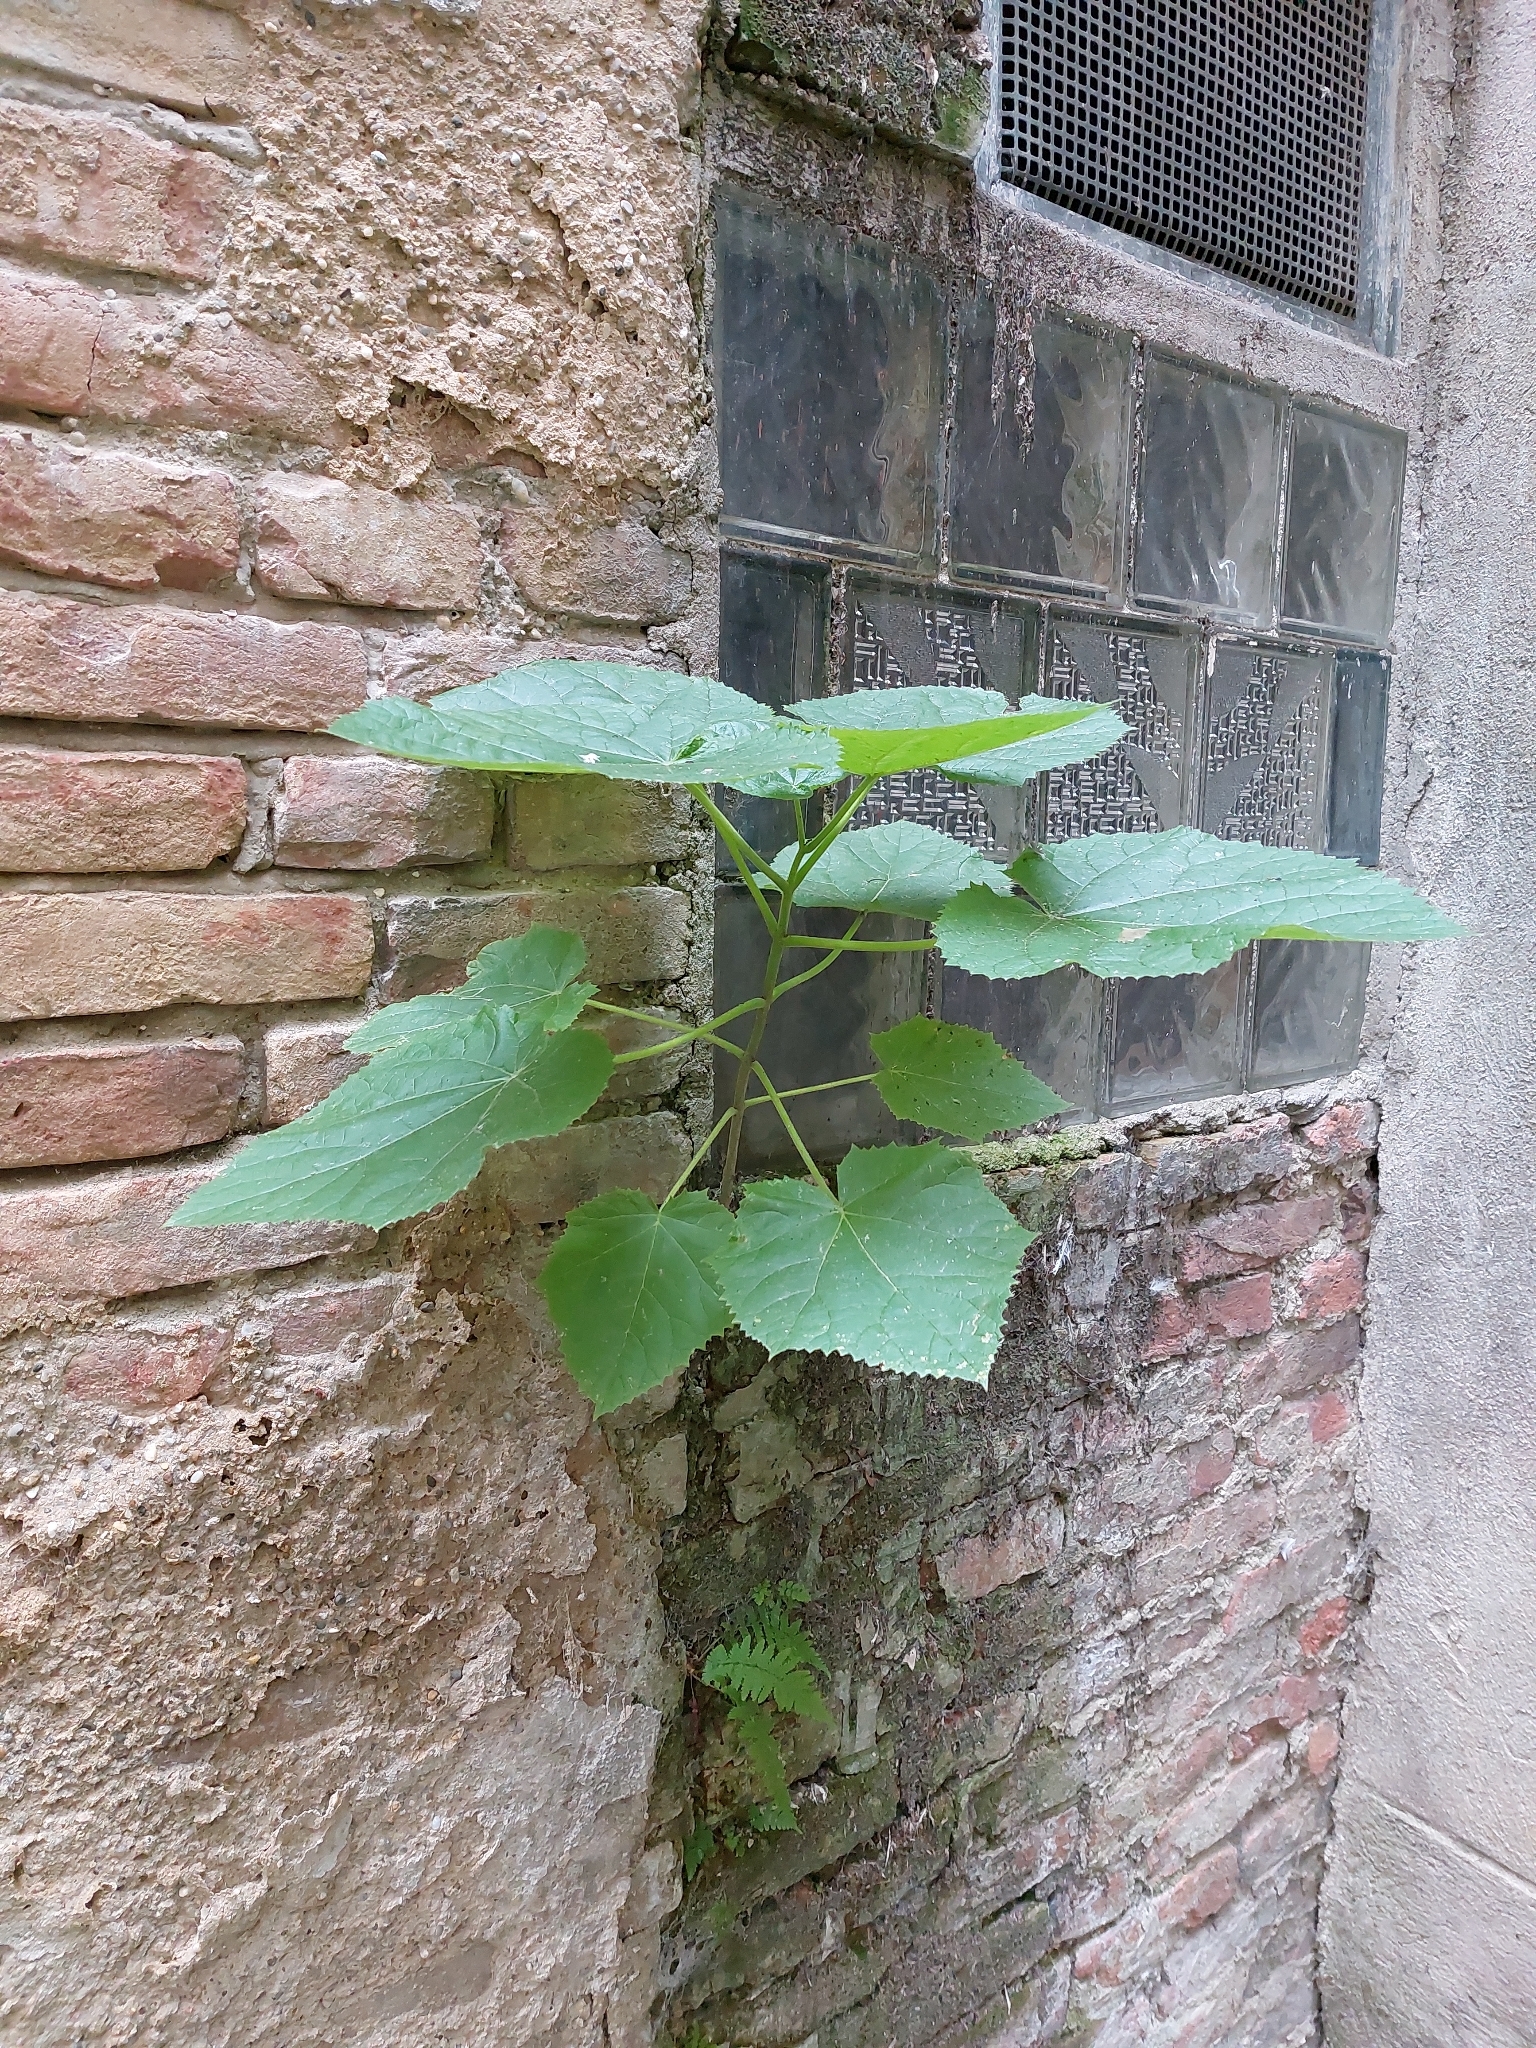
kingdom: Plantae
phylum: Tracheophyta
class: Magnoliopsida
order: Lamiales
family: Paulowniaceae
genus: Paulownia
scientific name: Paulownia tomentosa
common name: Foxglove-tree
